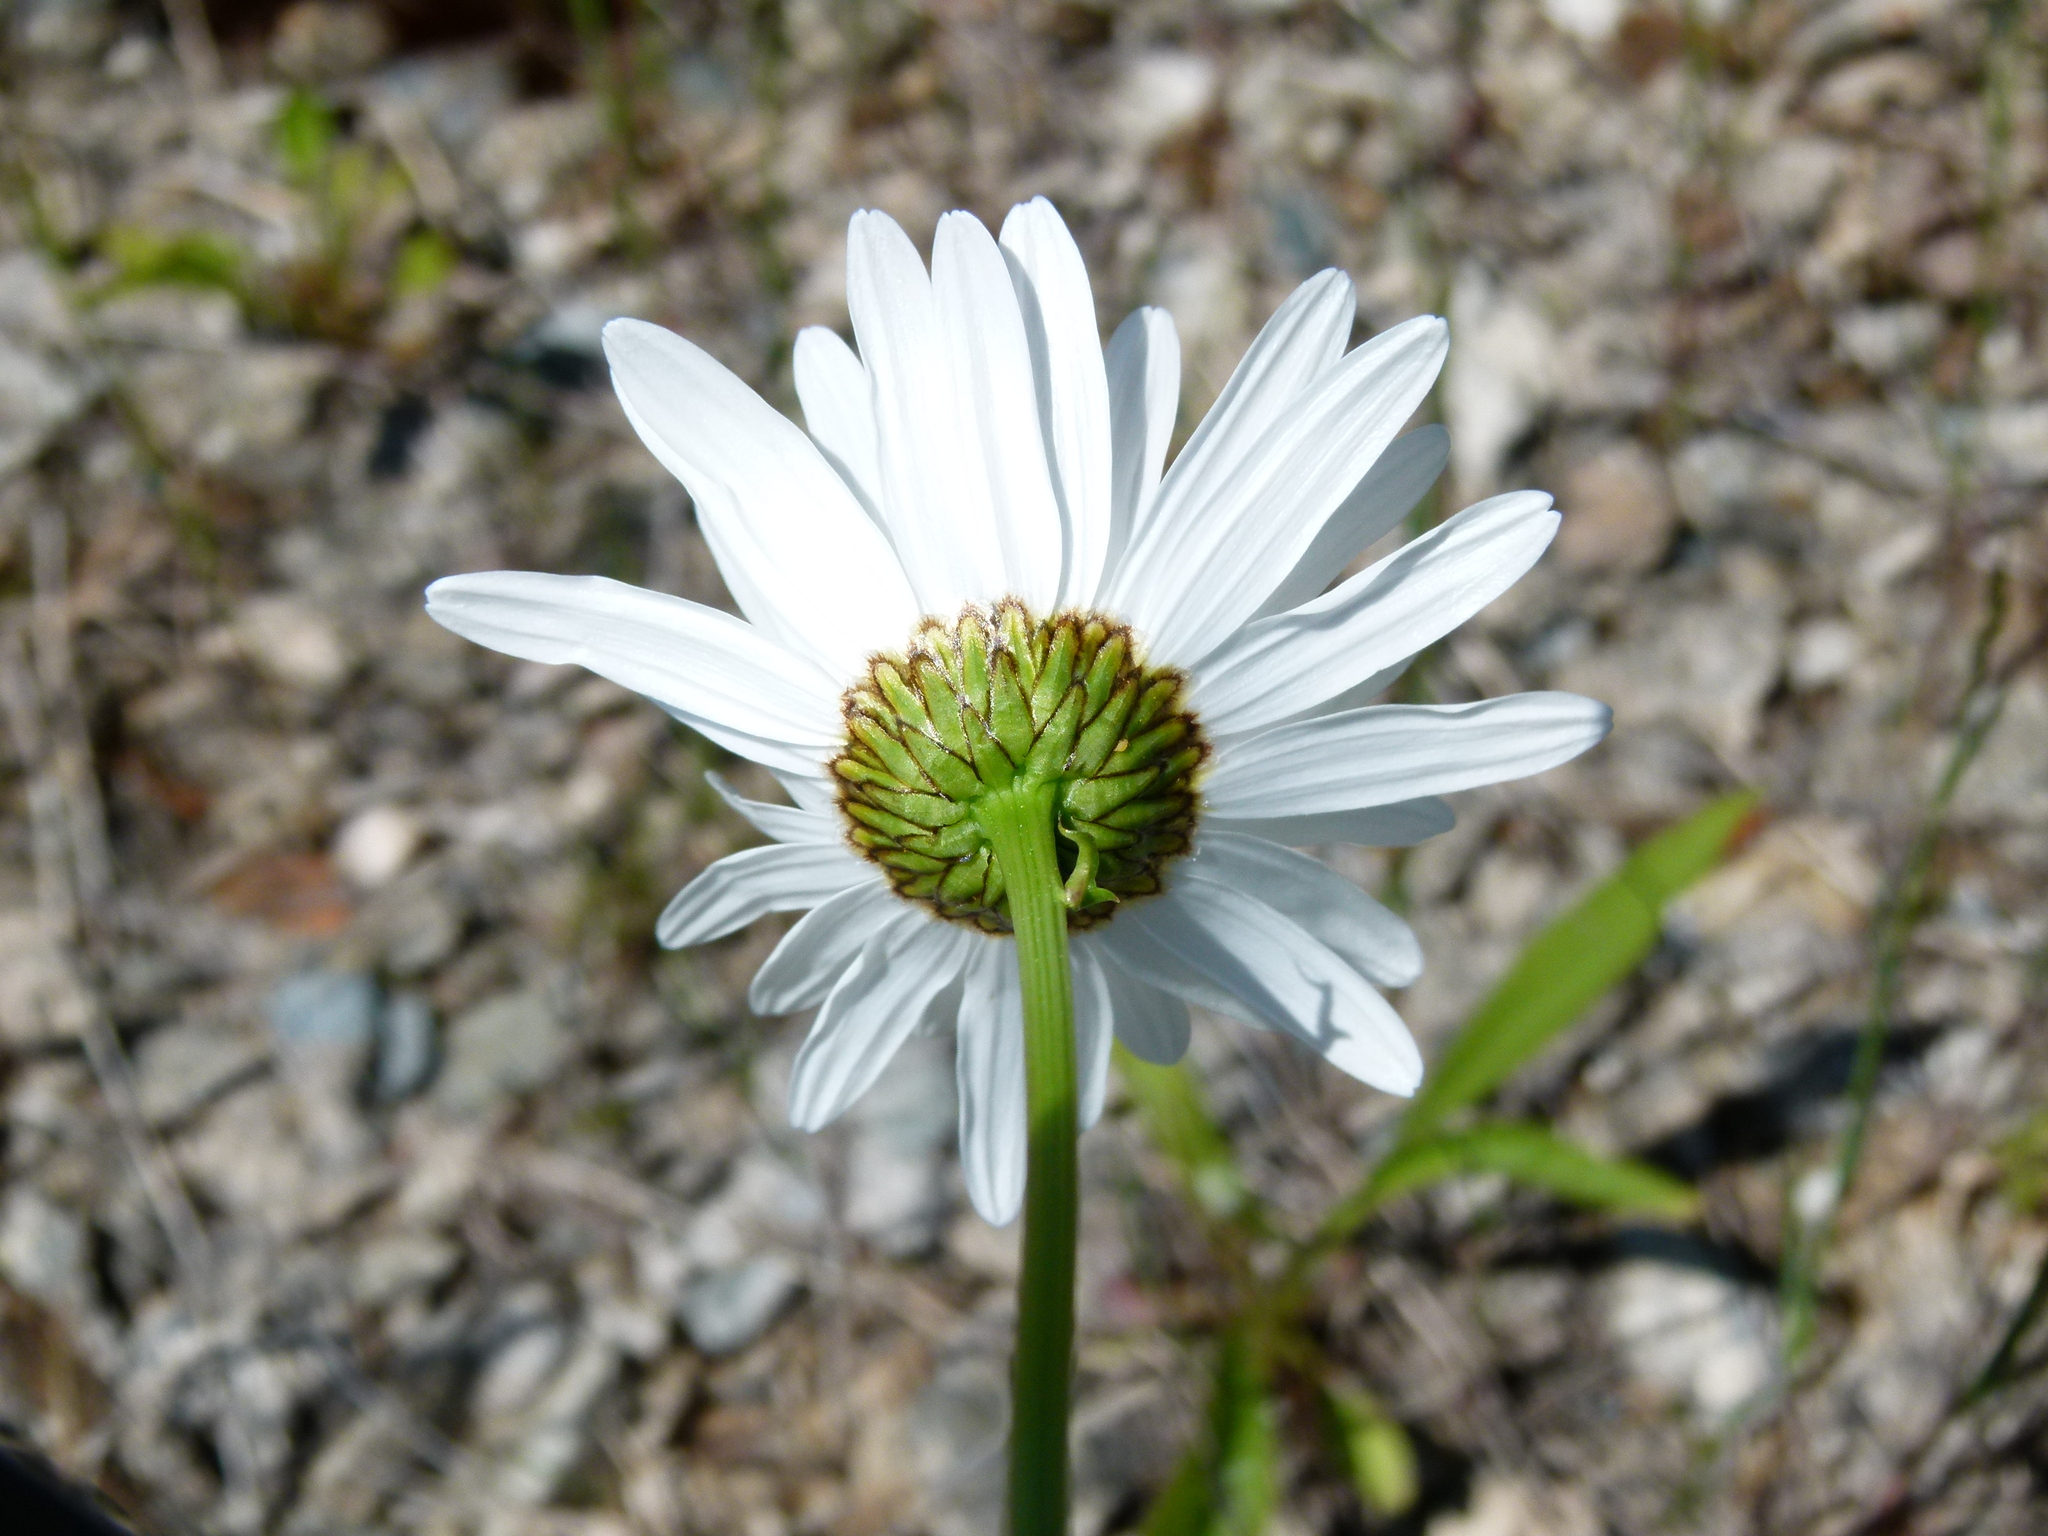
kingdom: Plantae
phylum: Tracheophyta
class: Magnoliopsida
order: Asterales
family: Asteraceae
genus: Leucanthemum
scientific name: Leucanthemum vulgare
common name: Oxeye daisy
